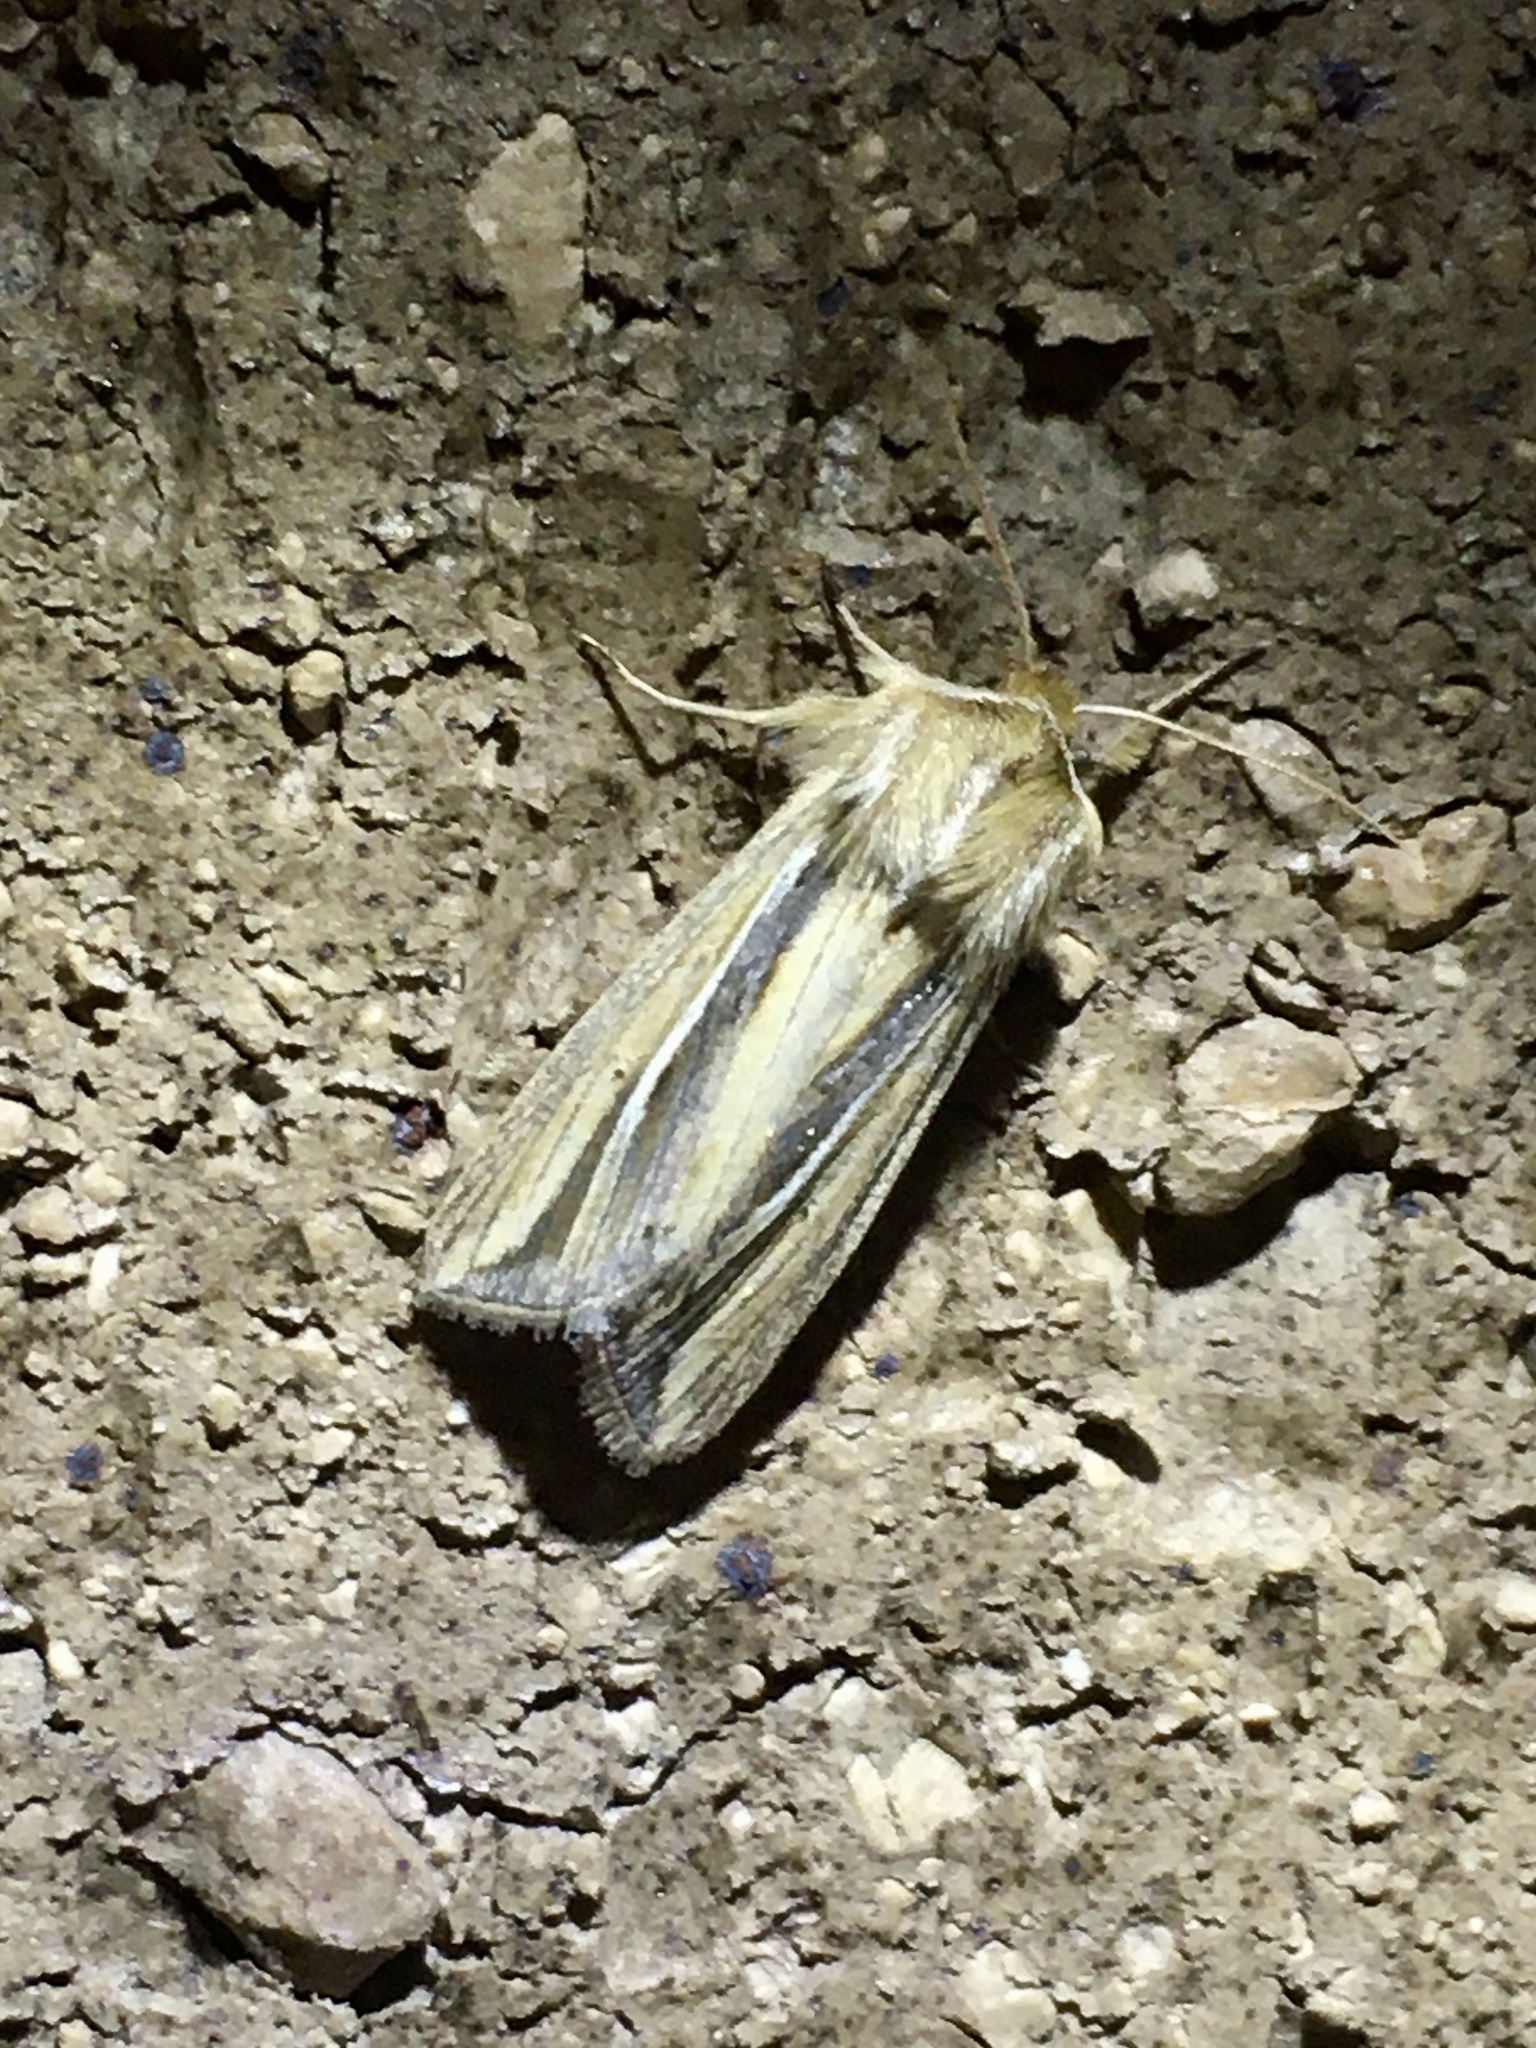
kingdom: Animalia
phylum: Arthropoda
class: Insecta
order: Lepidoptera
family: Noctuidae
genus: Dargida
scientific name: Dargida diffusa
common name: Wheat head armyworm
